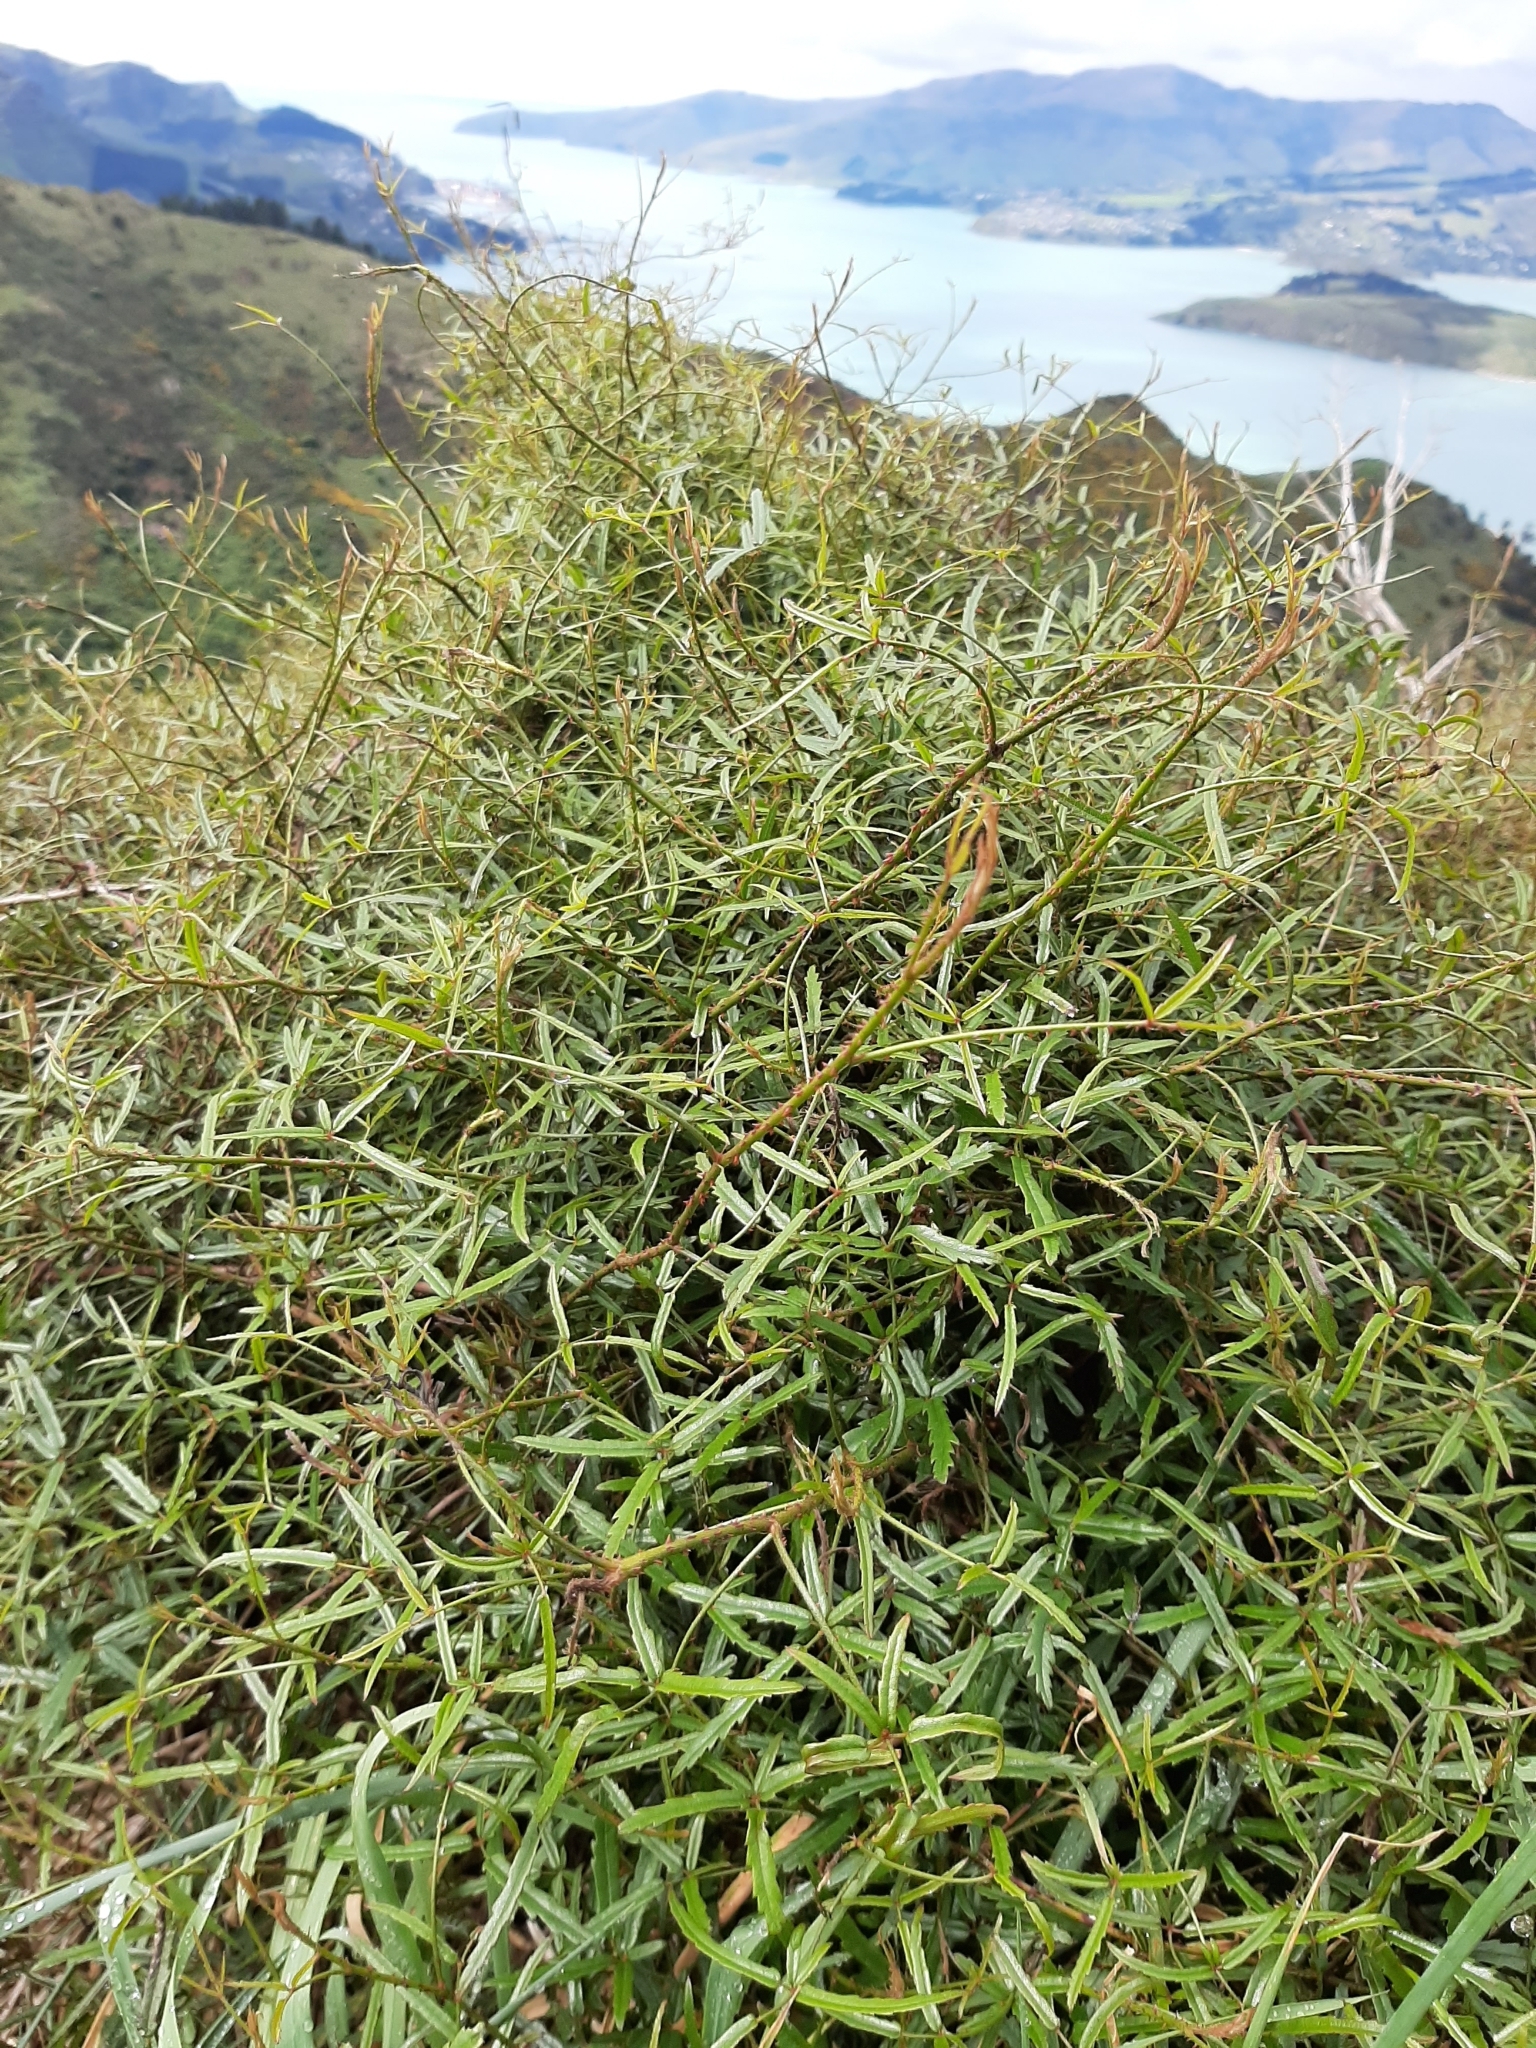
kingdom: Plantae
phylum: Tracheophyta
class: Magnoliopsida
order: Rosales
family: Rosaceae
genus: Rubus
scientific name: Rubus schmidelioides
